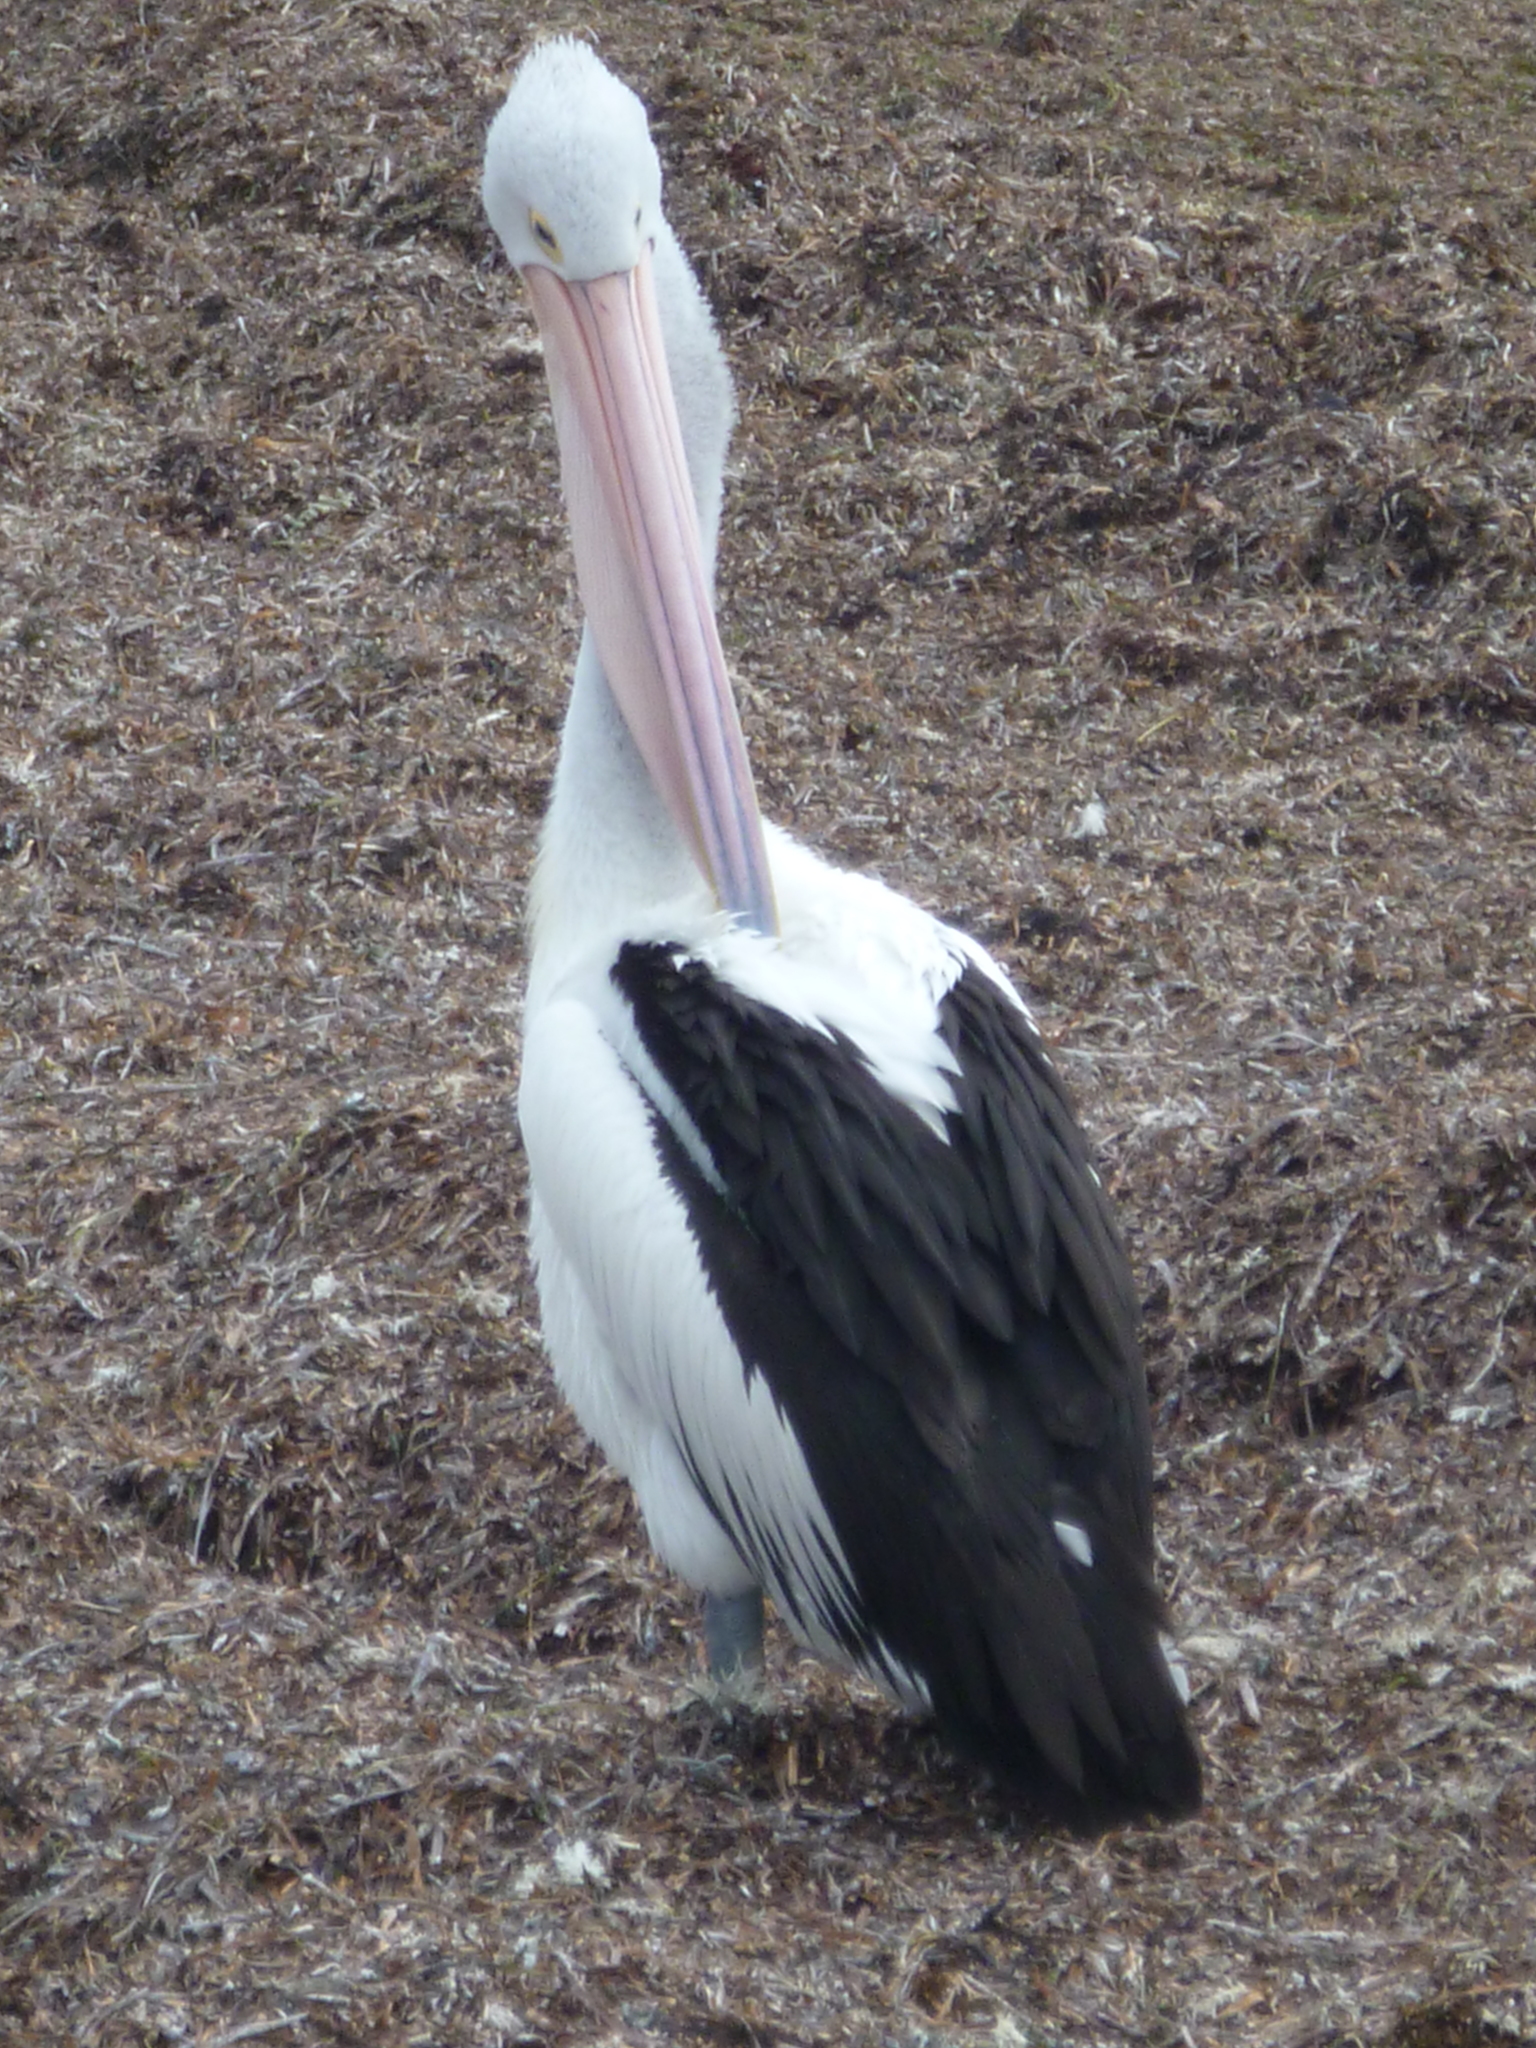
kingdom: Animalia
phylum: Chordata
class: Aves
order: Pelecaniformes
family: Pelecanidae
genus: Pelecanus
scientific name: Pelecanus conspicillatus
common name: Australian pelican
